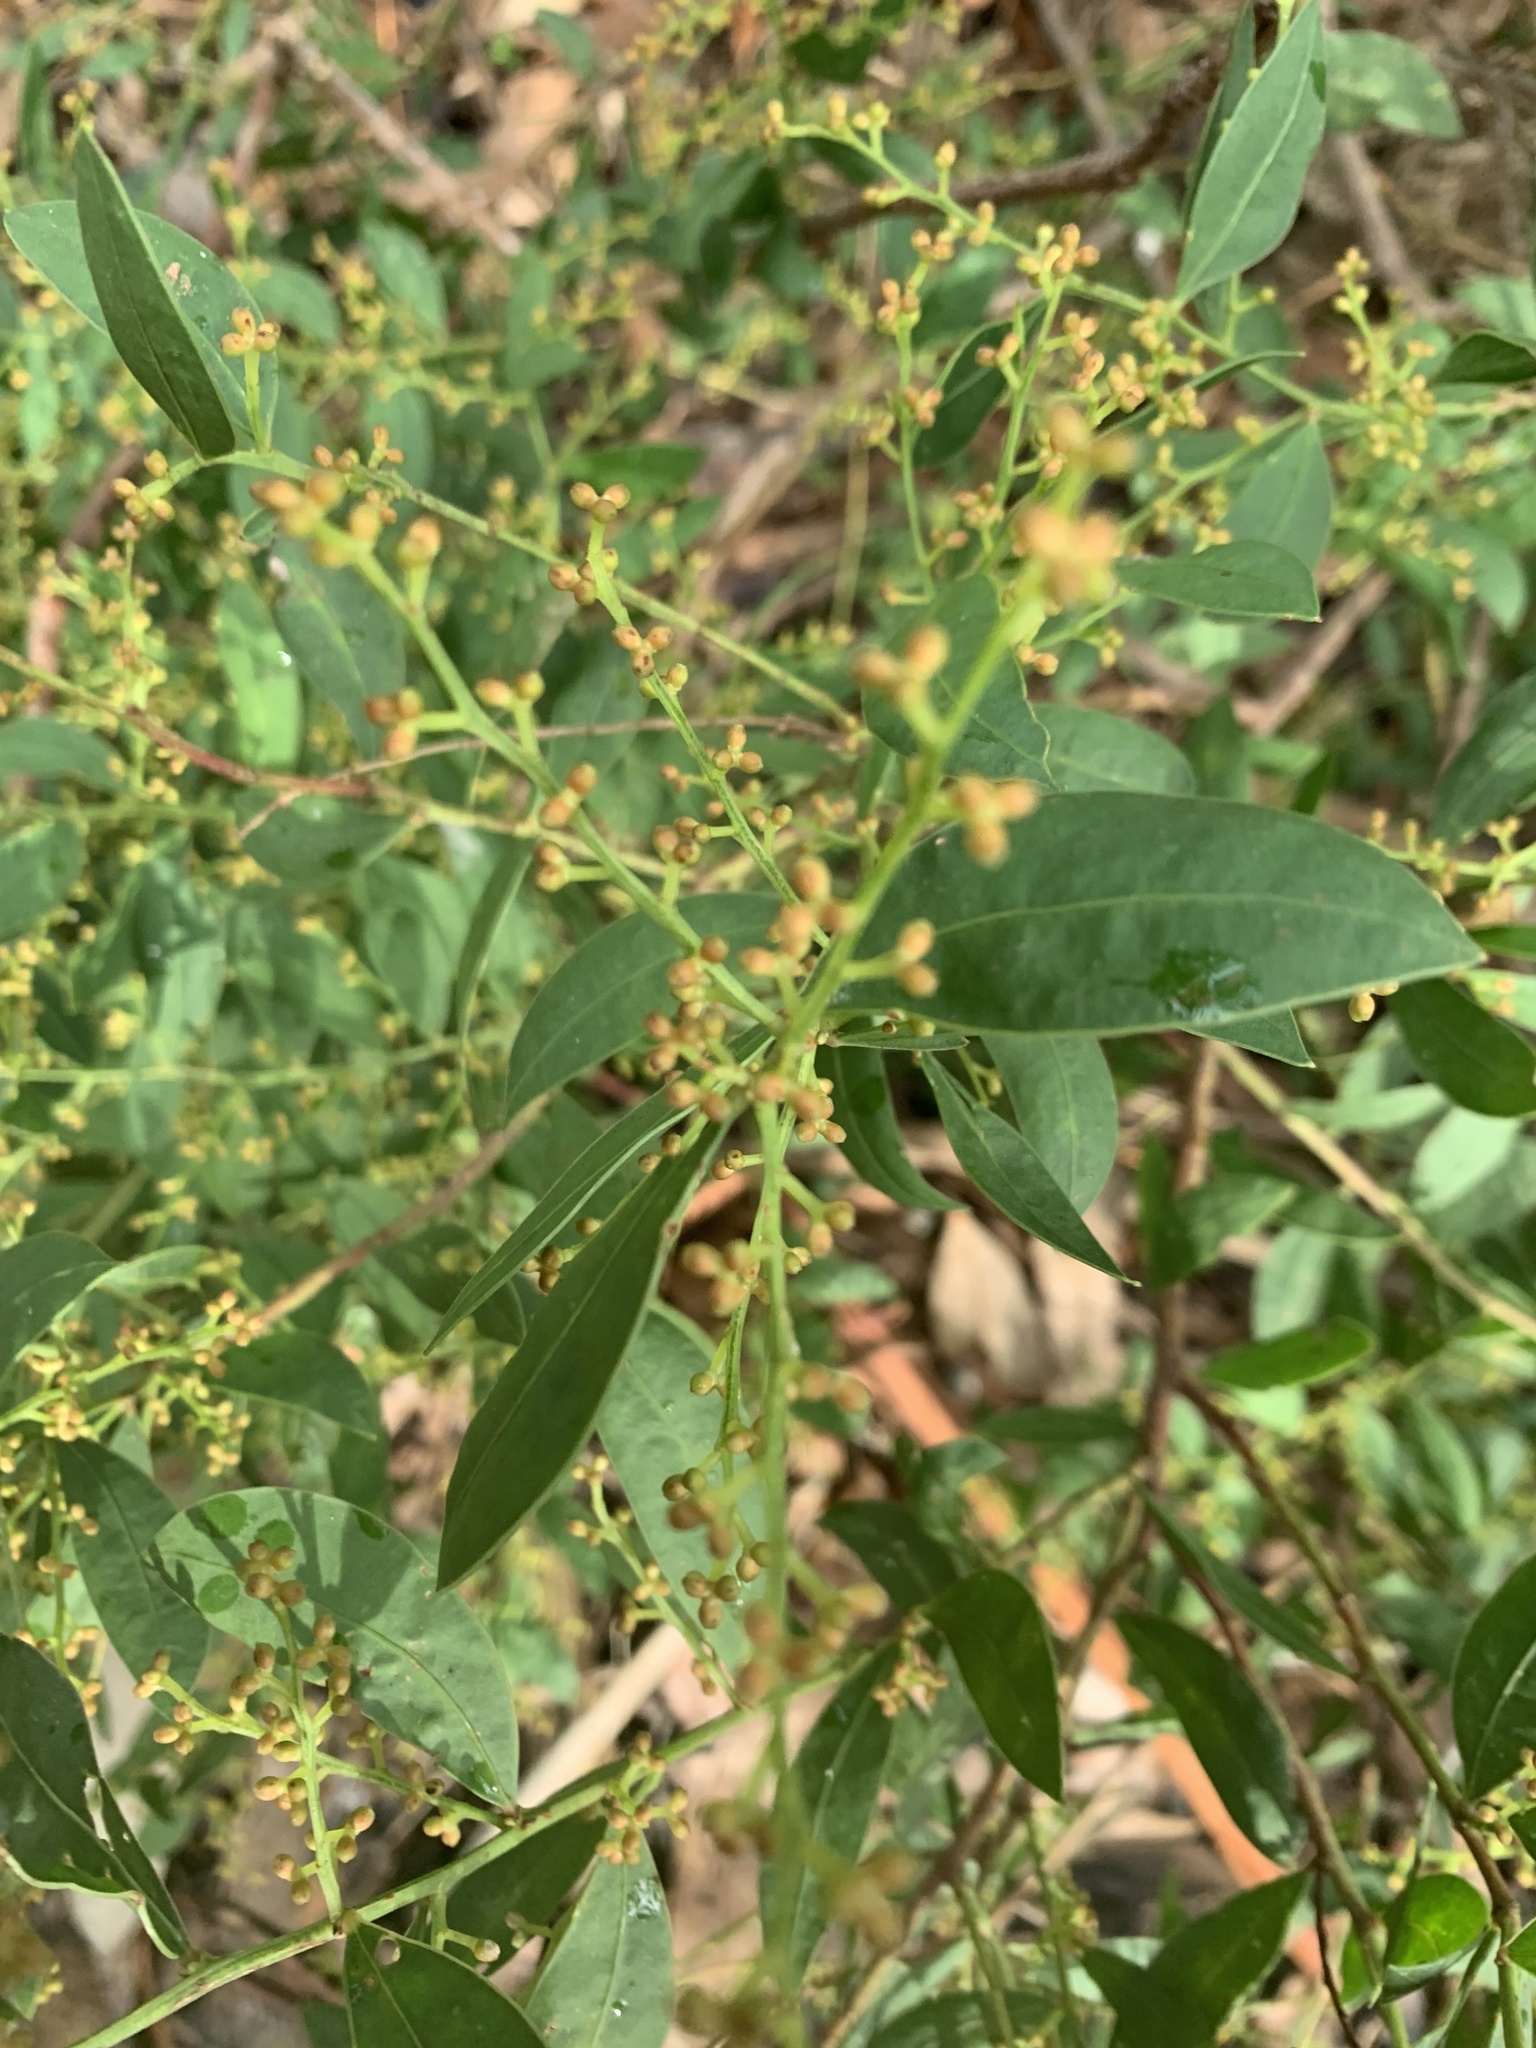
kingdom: Plantae
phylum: Tracheophyta
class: Magnoliopsida
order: Fabales
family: Fabaceae
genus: Acacia
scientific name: Acacia myrtifolia
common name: Myrtle wattle
